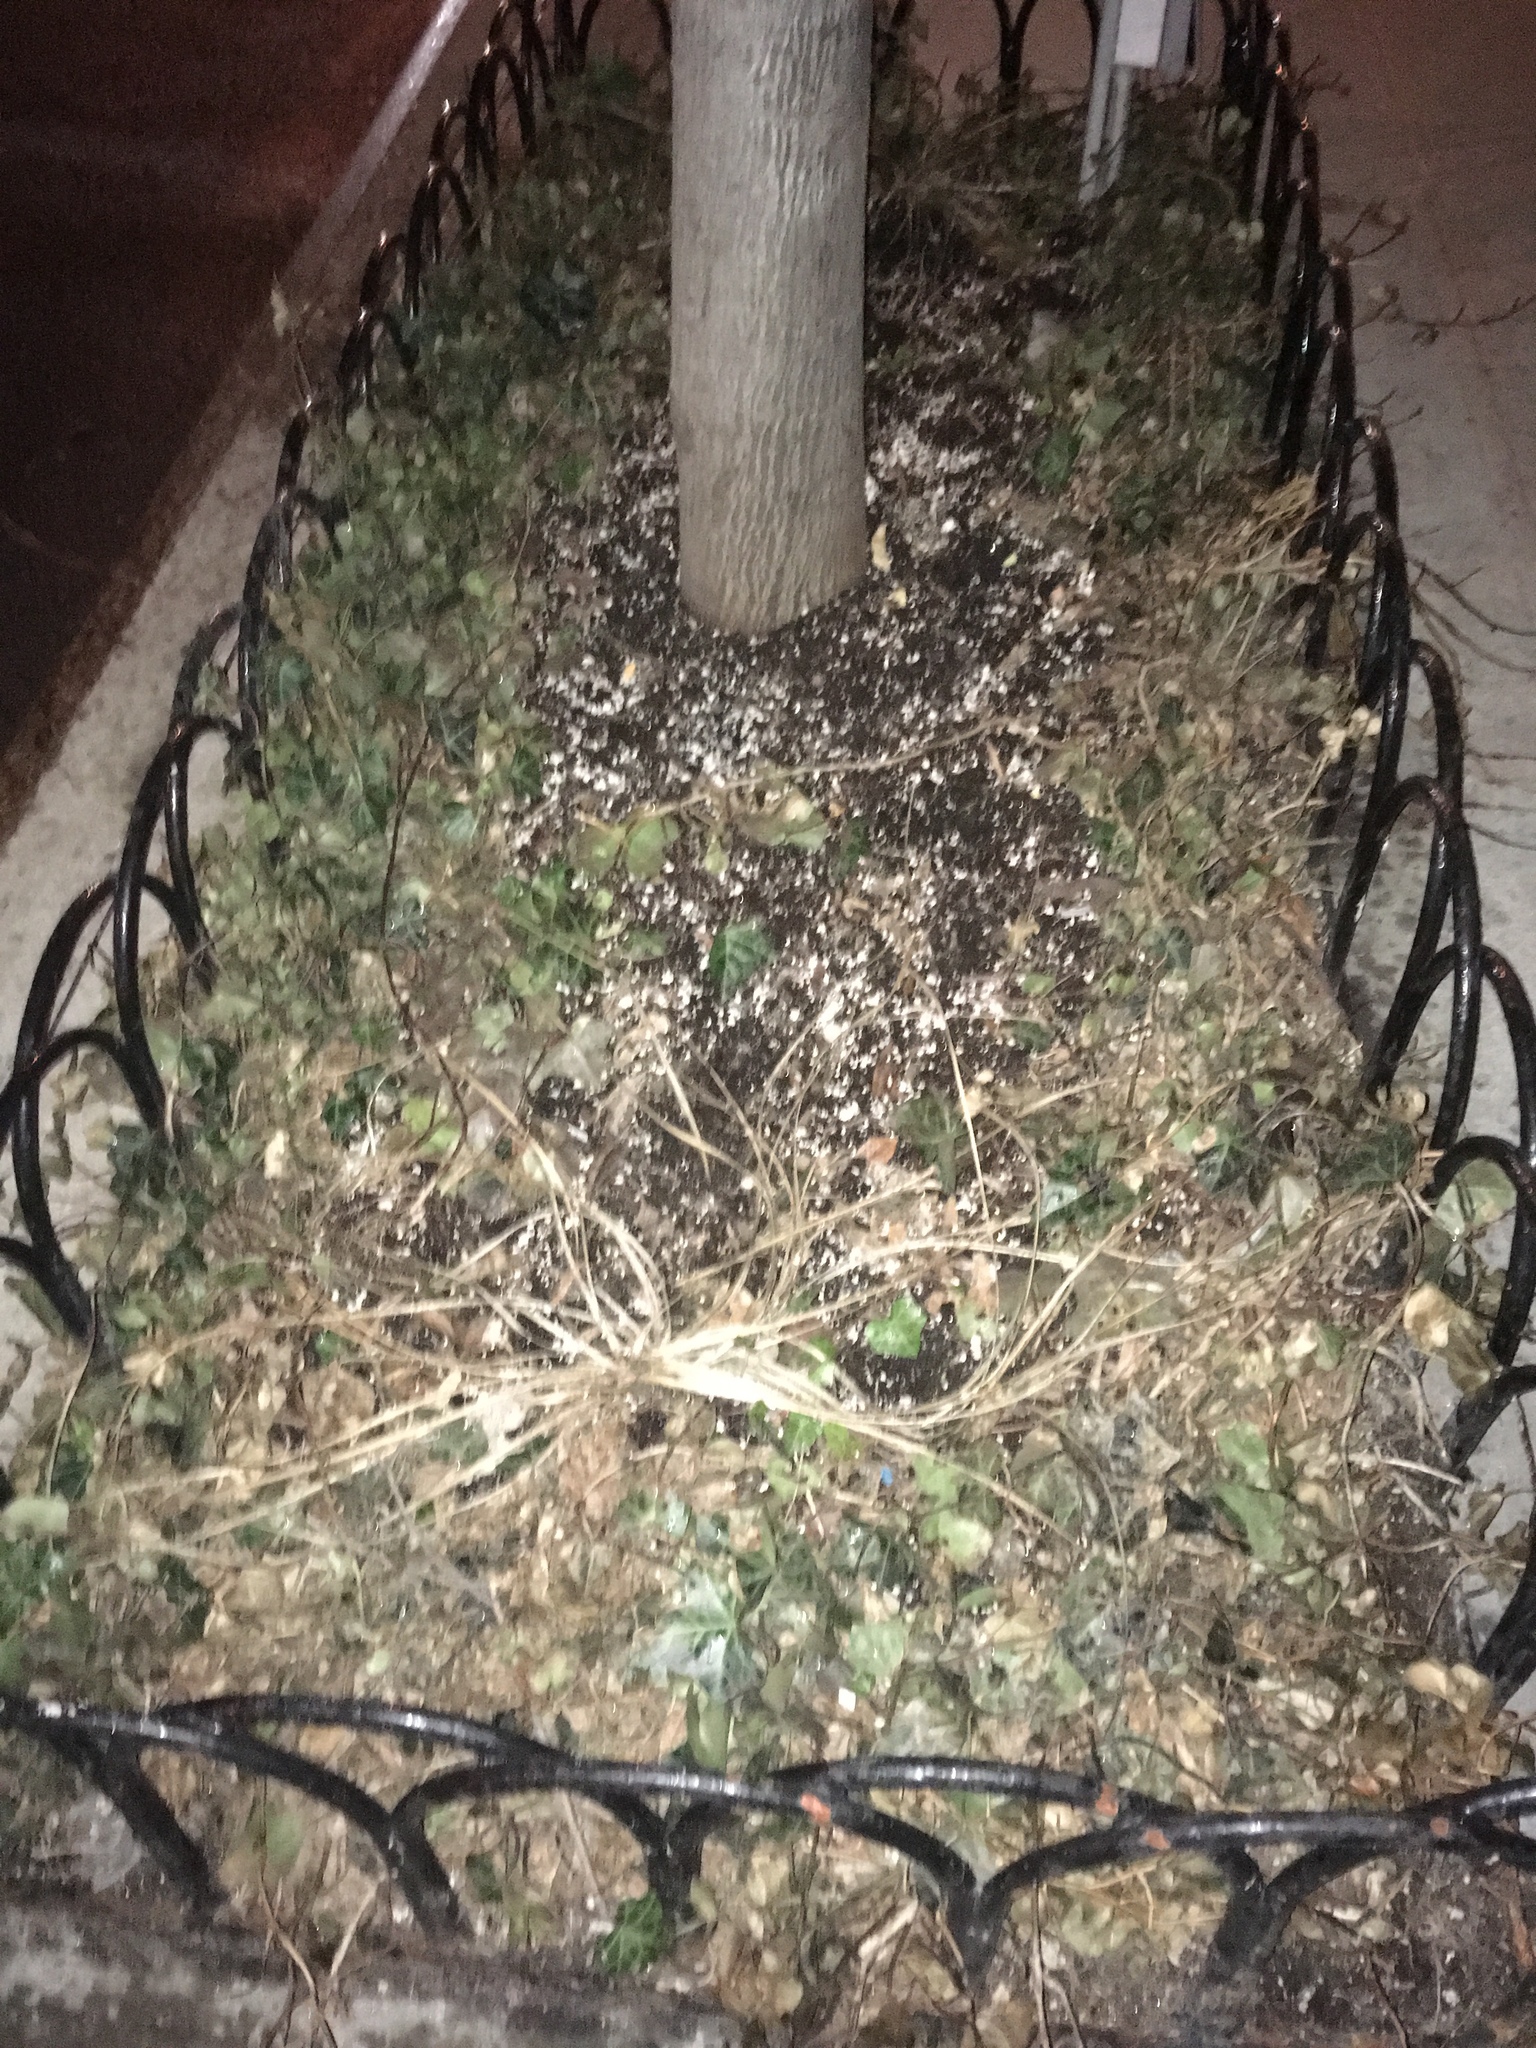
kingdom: Plantae
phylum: Tracheophyta
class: Magnoliopsida
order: Apiales
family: Araliaceae
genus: Hedera
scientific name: Hedera helix
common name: Ivy
